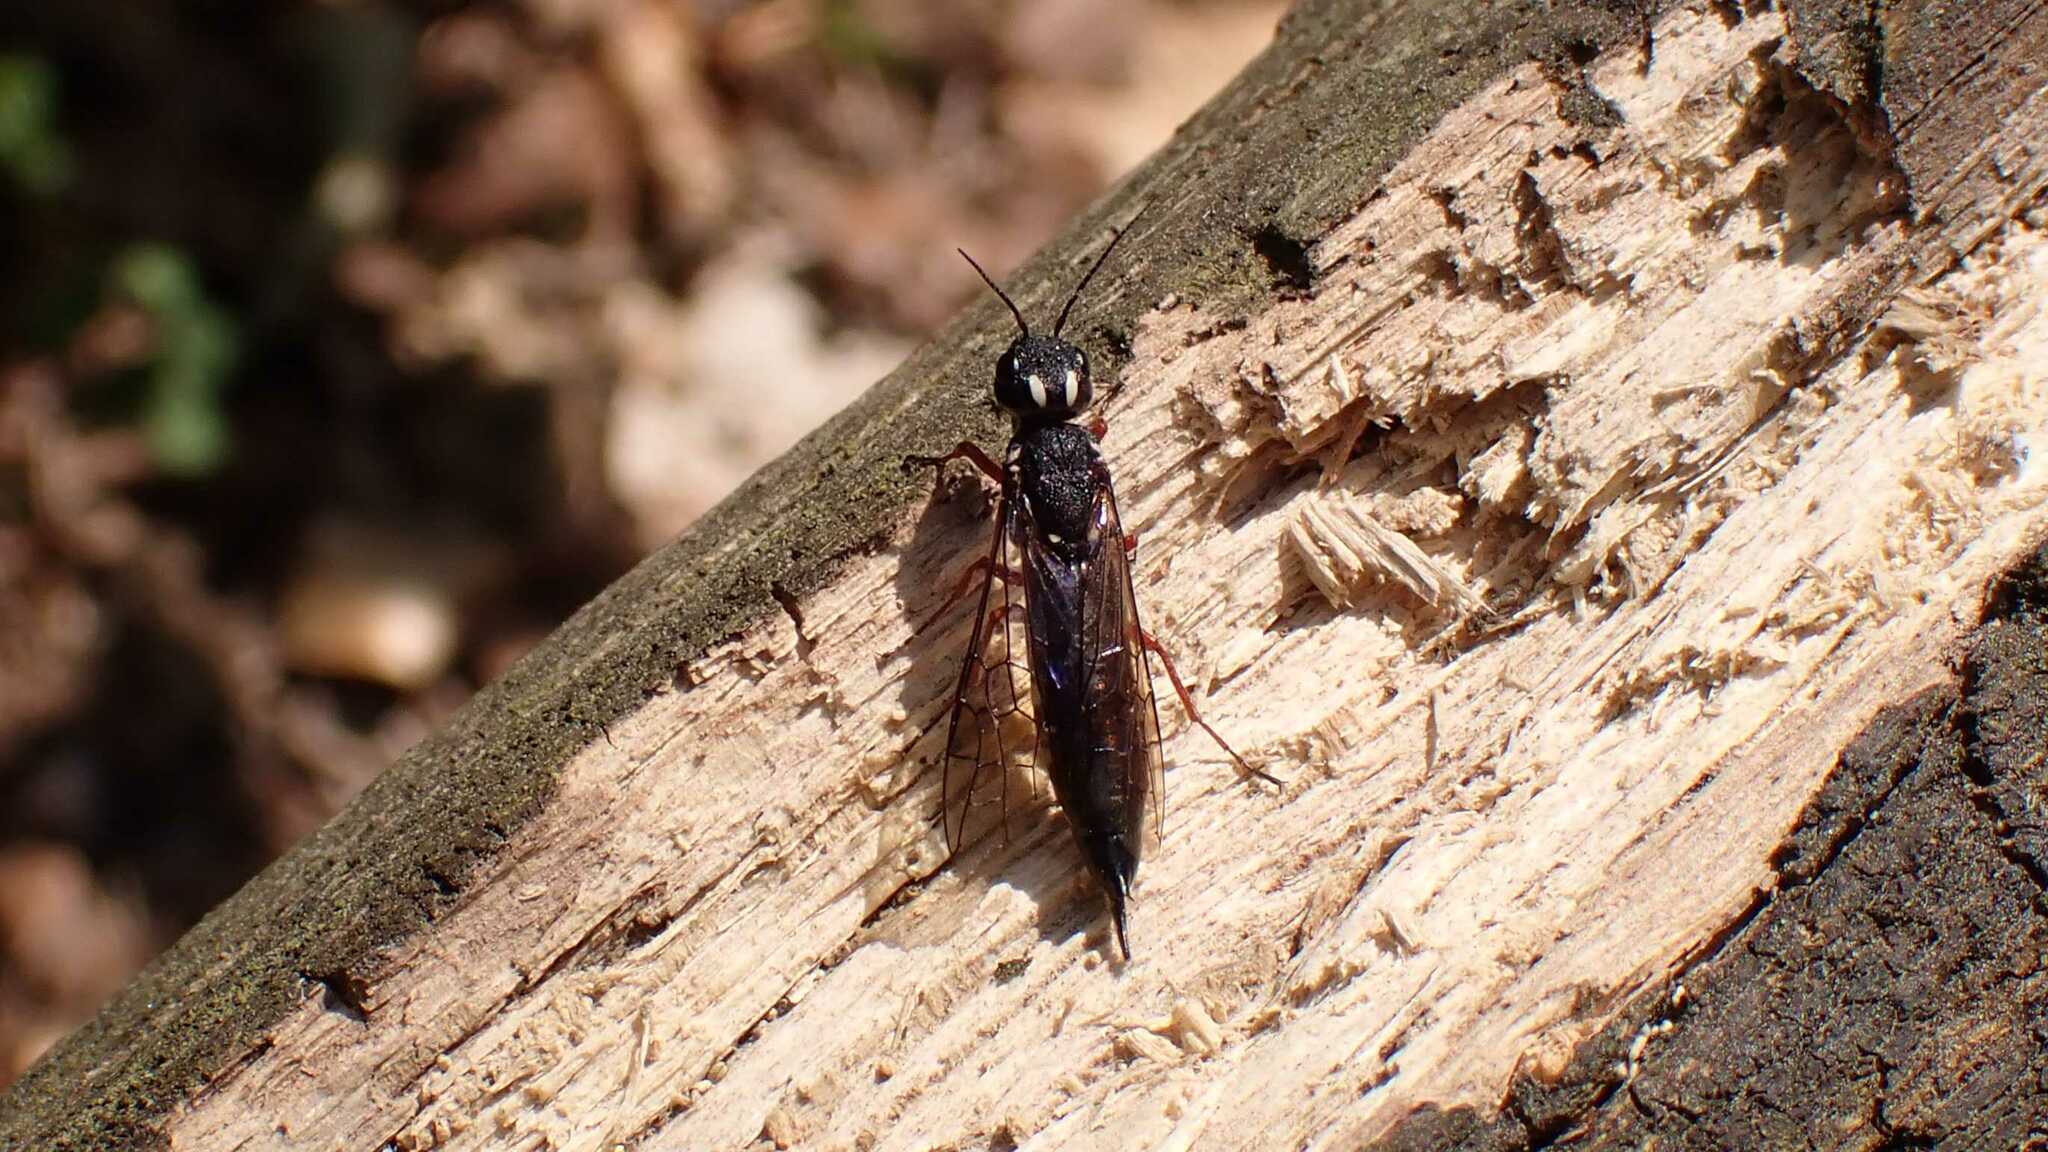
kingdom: Animalia
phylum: Arthropoda
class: Insecta
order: Hymenoptera
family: Xiphydriidae
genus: Xiphydria
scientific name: Xiphydria camelus
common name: Alder wood-wasp
